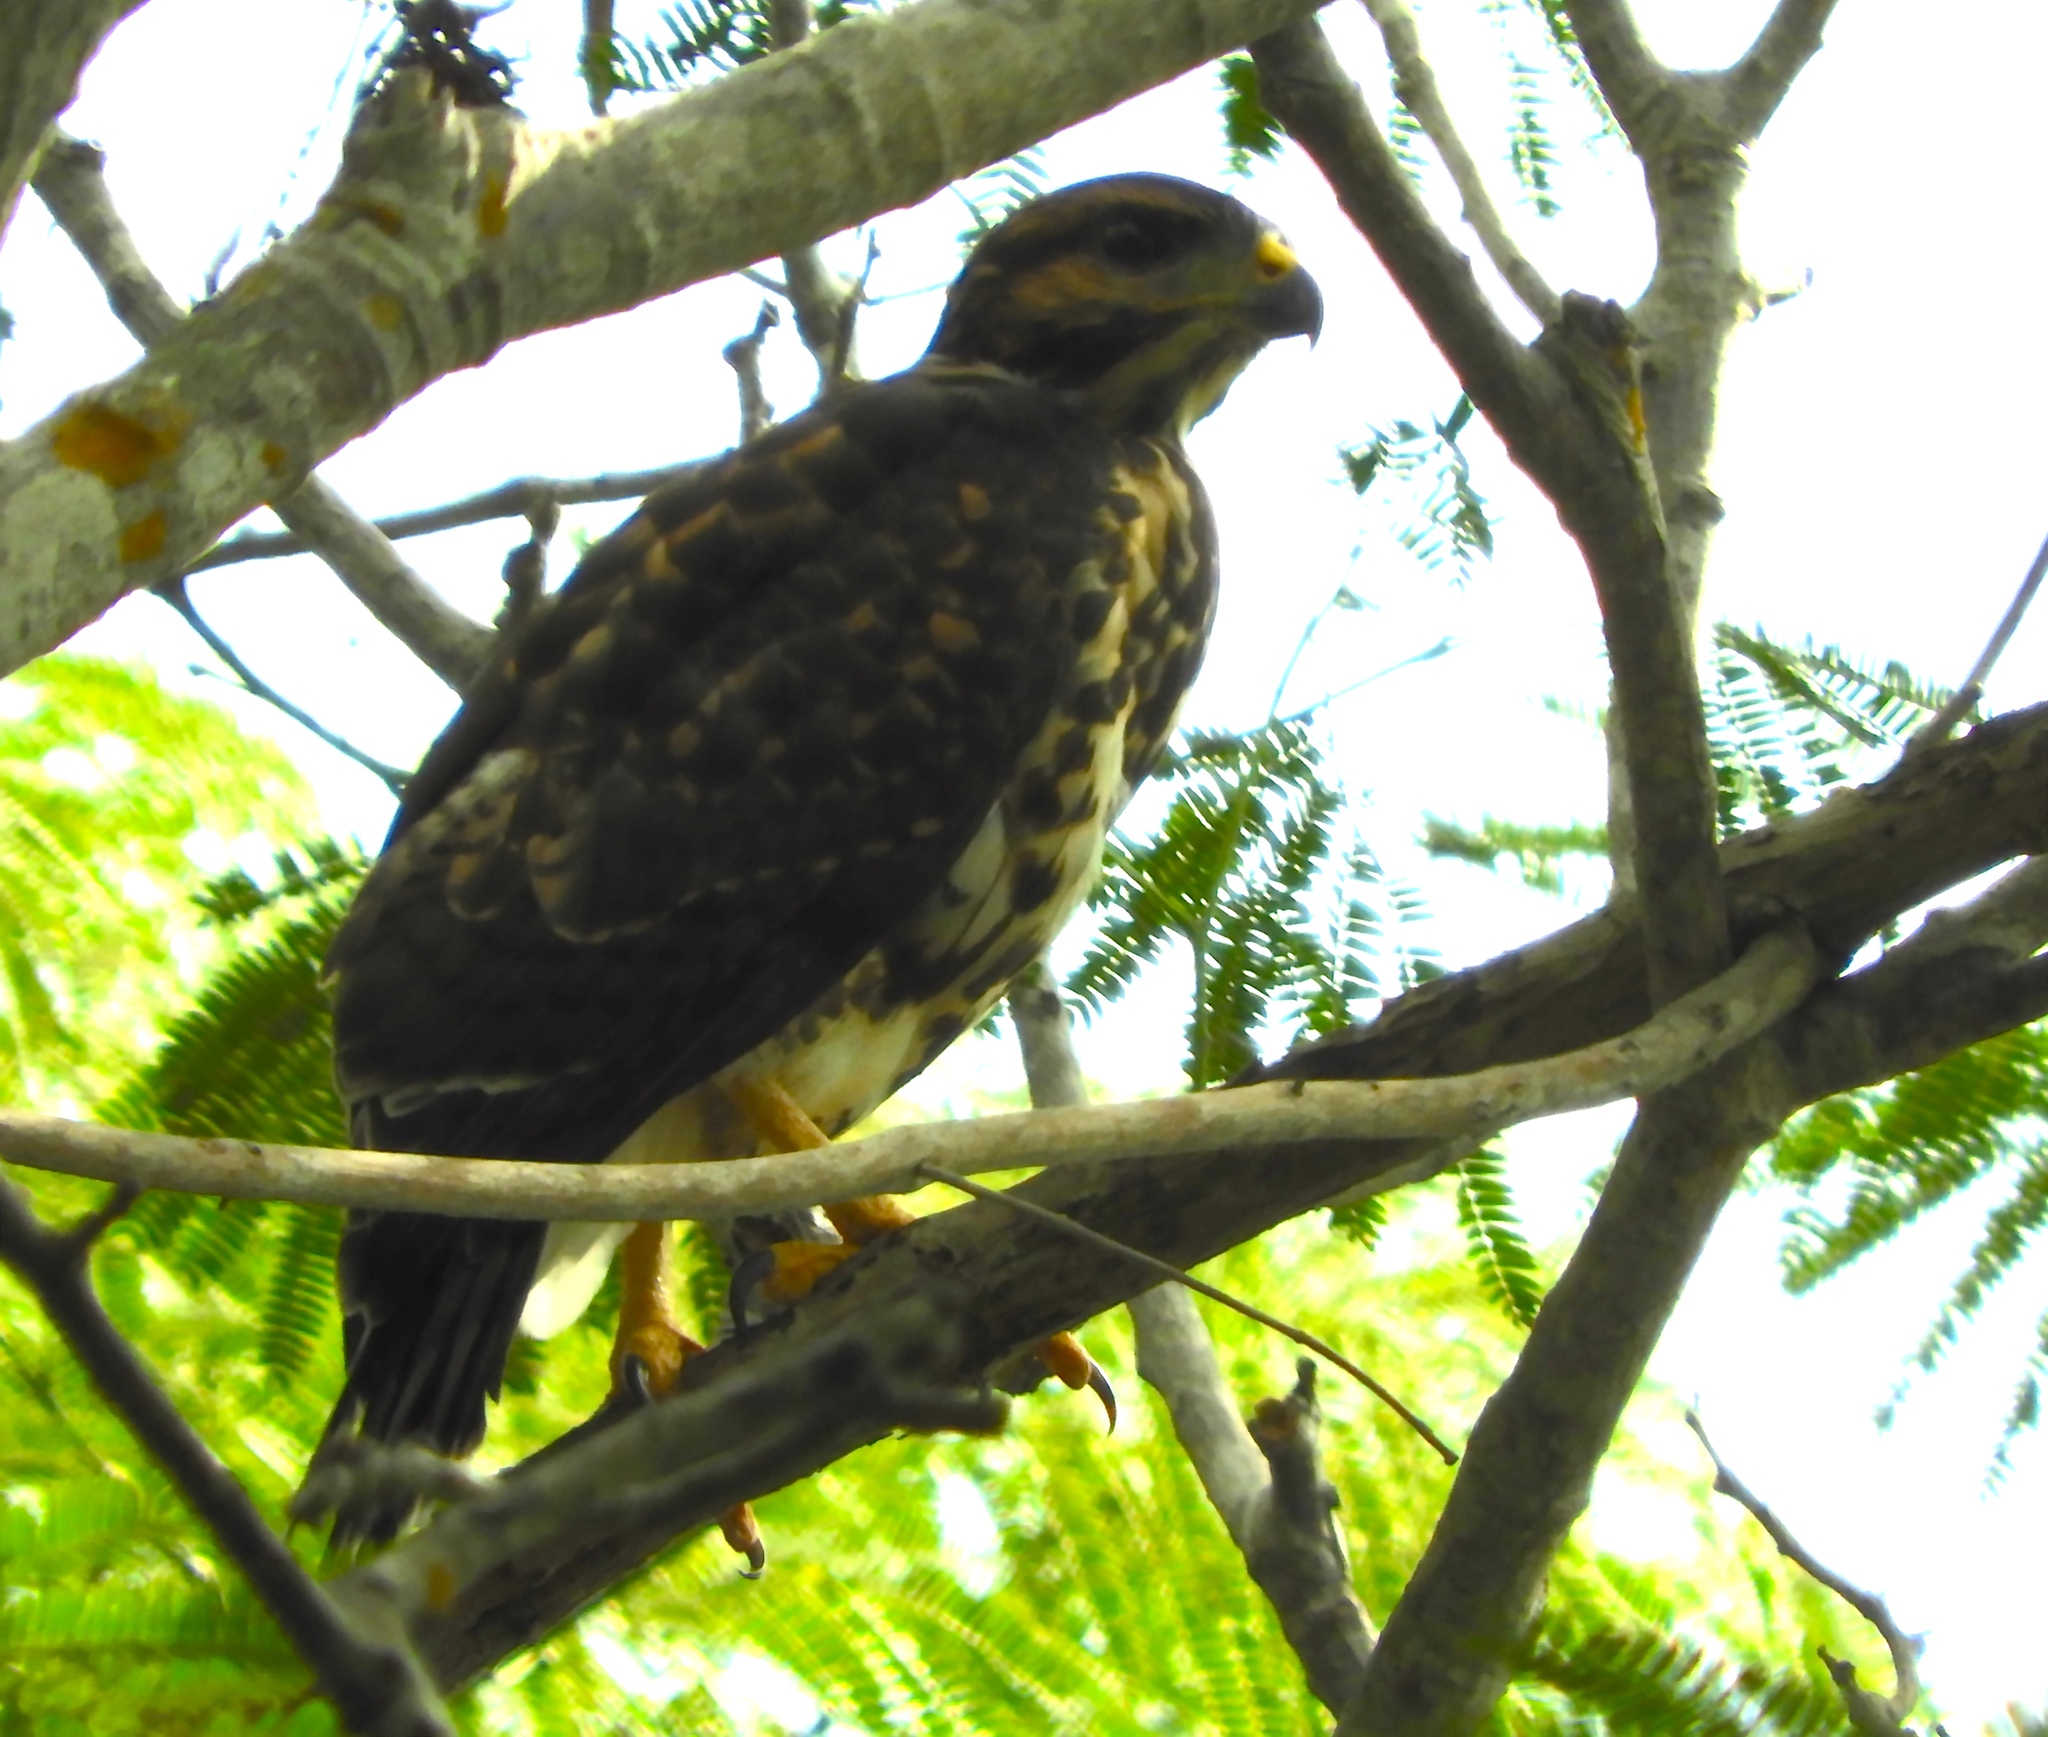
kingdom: Animalia
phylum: Chordata
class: Aves
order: Accipitriformes
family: Accipitridae
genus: Buteo
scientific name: Buteo nitidus
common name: Grey-lined hawk
